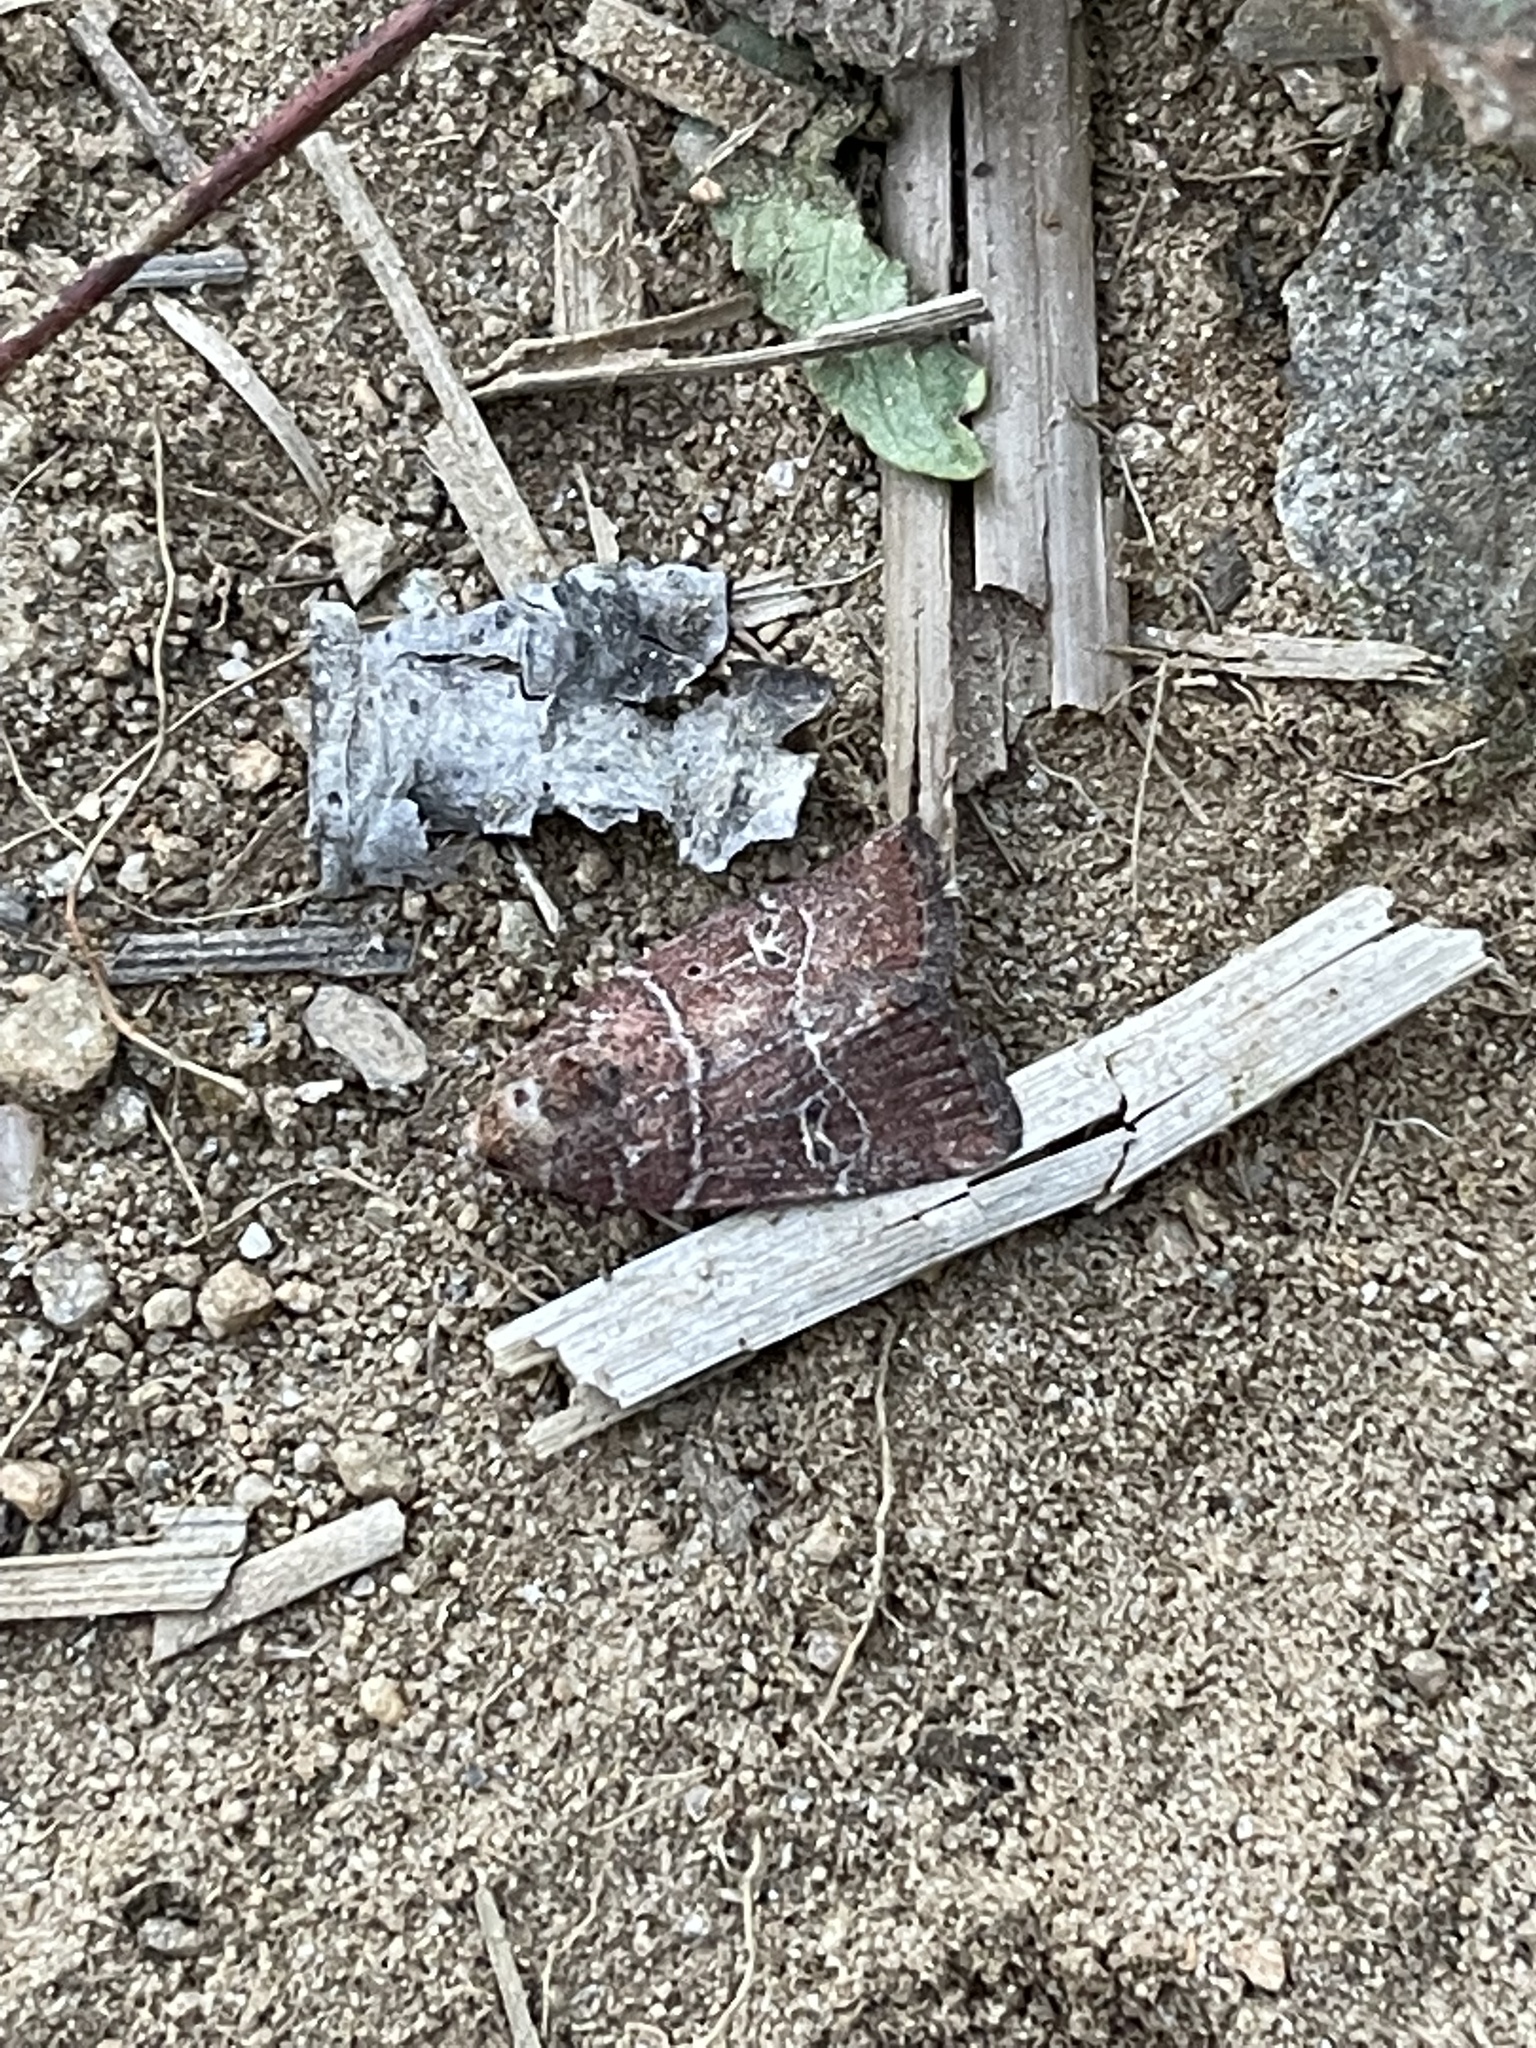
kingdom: Animalia
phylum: Arthropoda
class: Insecta
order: Lepidoptera
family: Noctuidae
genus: Elaphria
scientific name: Elaphria grata
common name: Grateful midget moth
